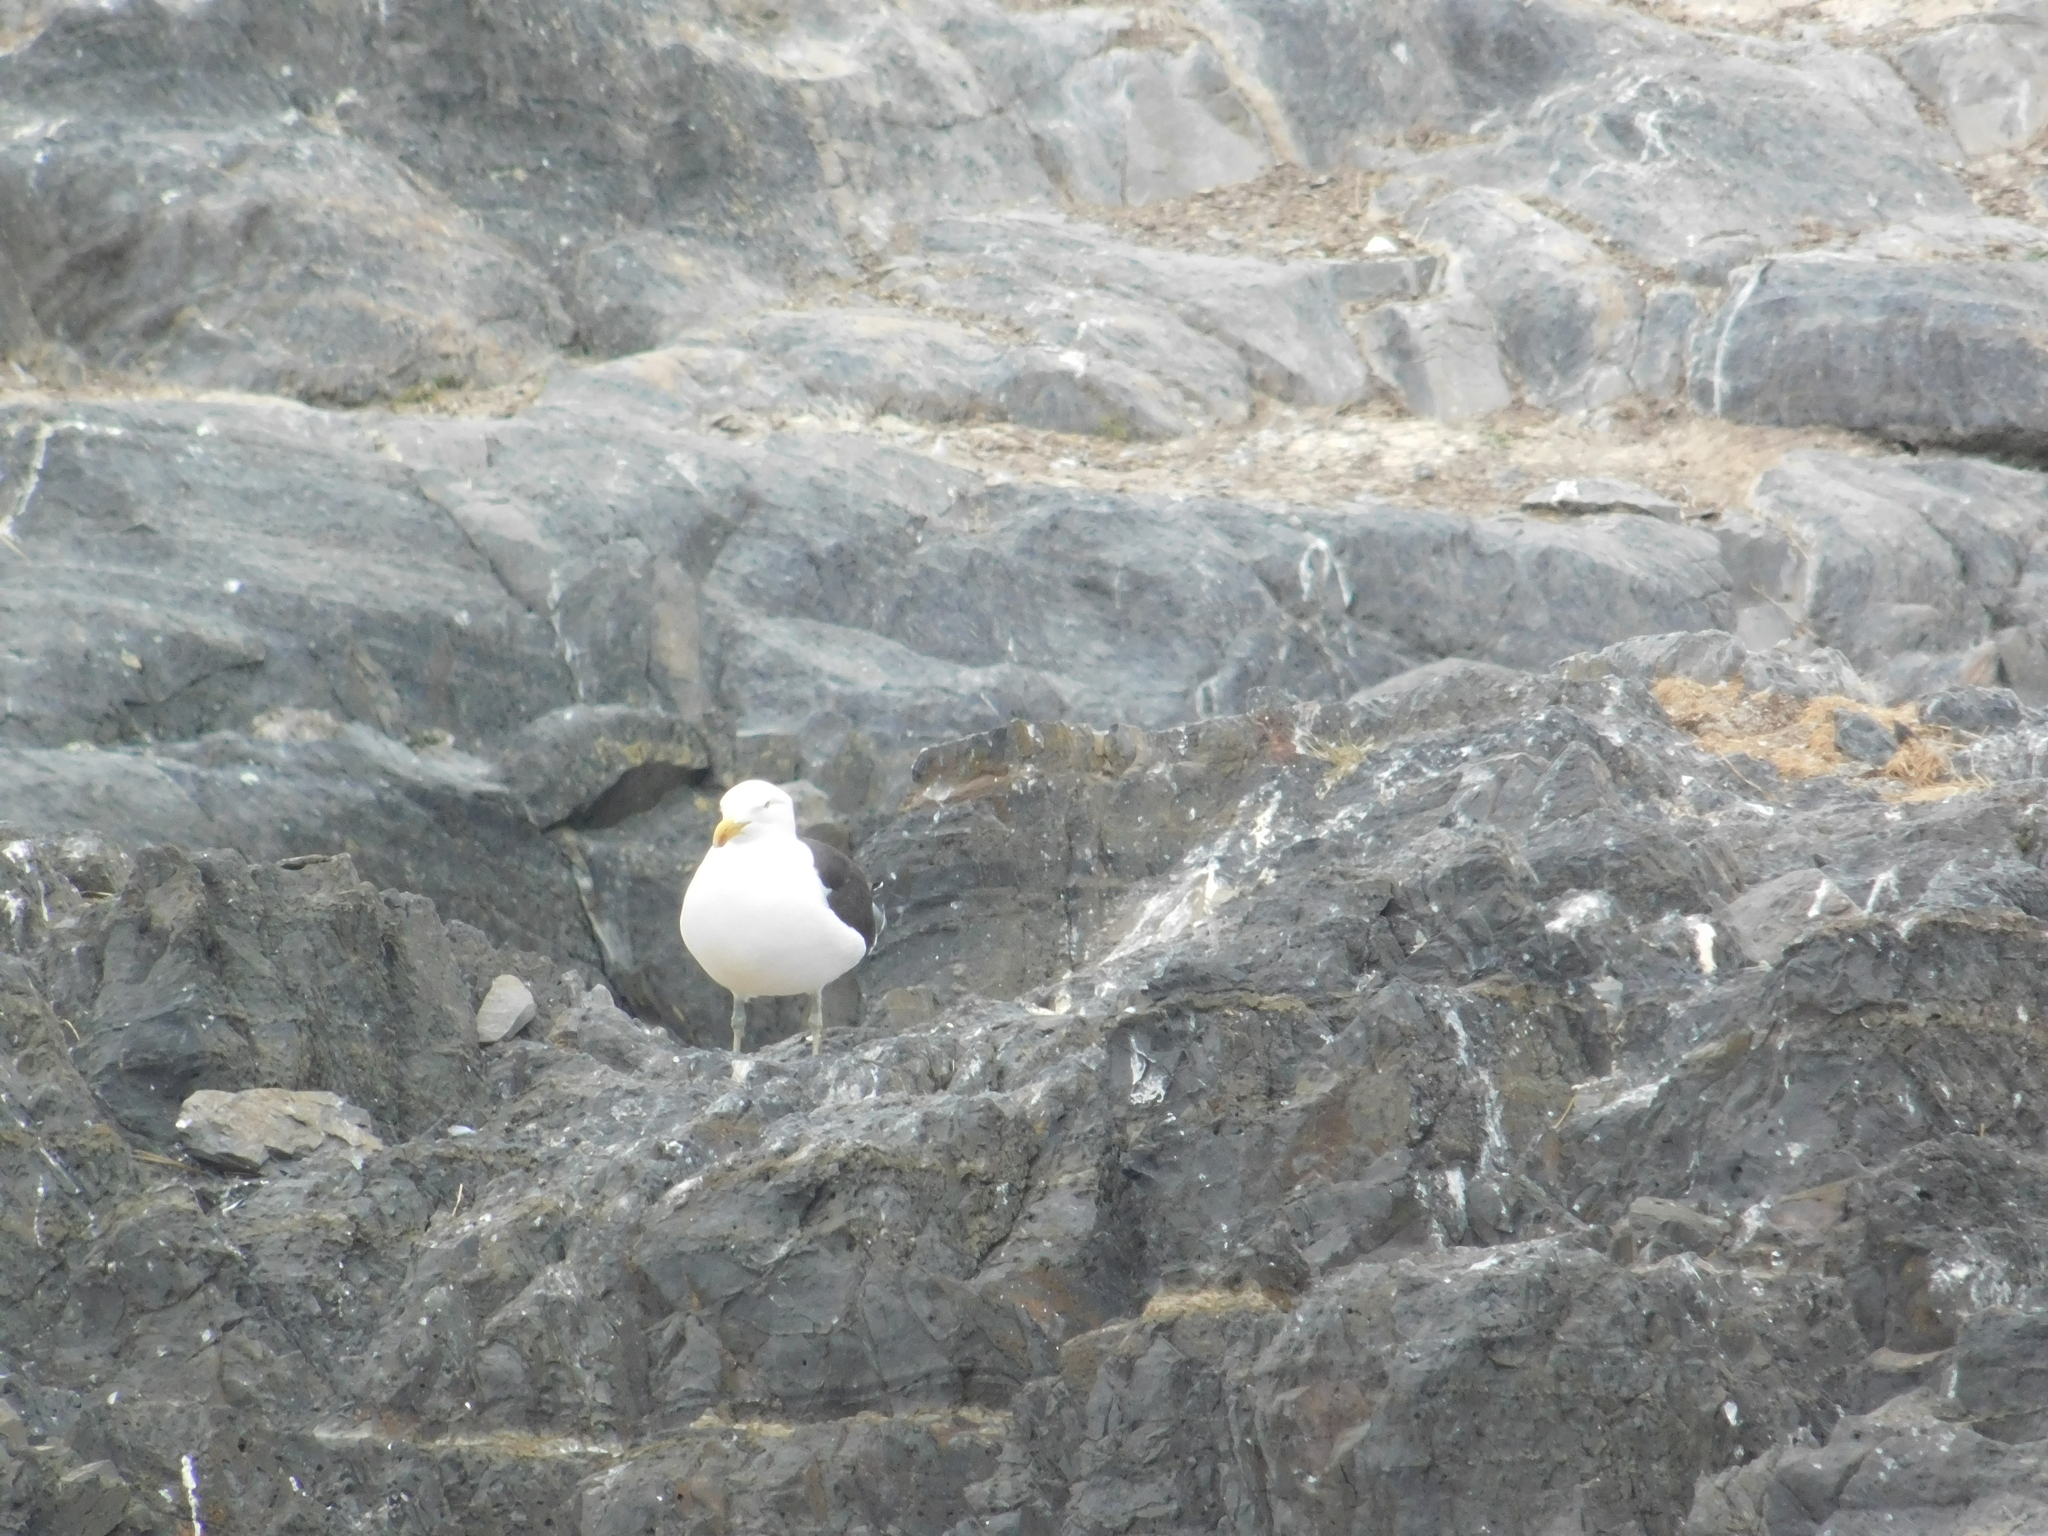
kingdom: Animalia
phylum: Chordata
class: Aves
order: Charadriiformes
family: Laridae
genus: Larus
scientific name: Larus dominicanus
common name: Kelp gull
